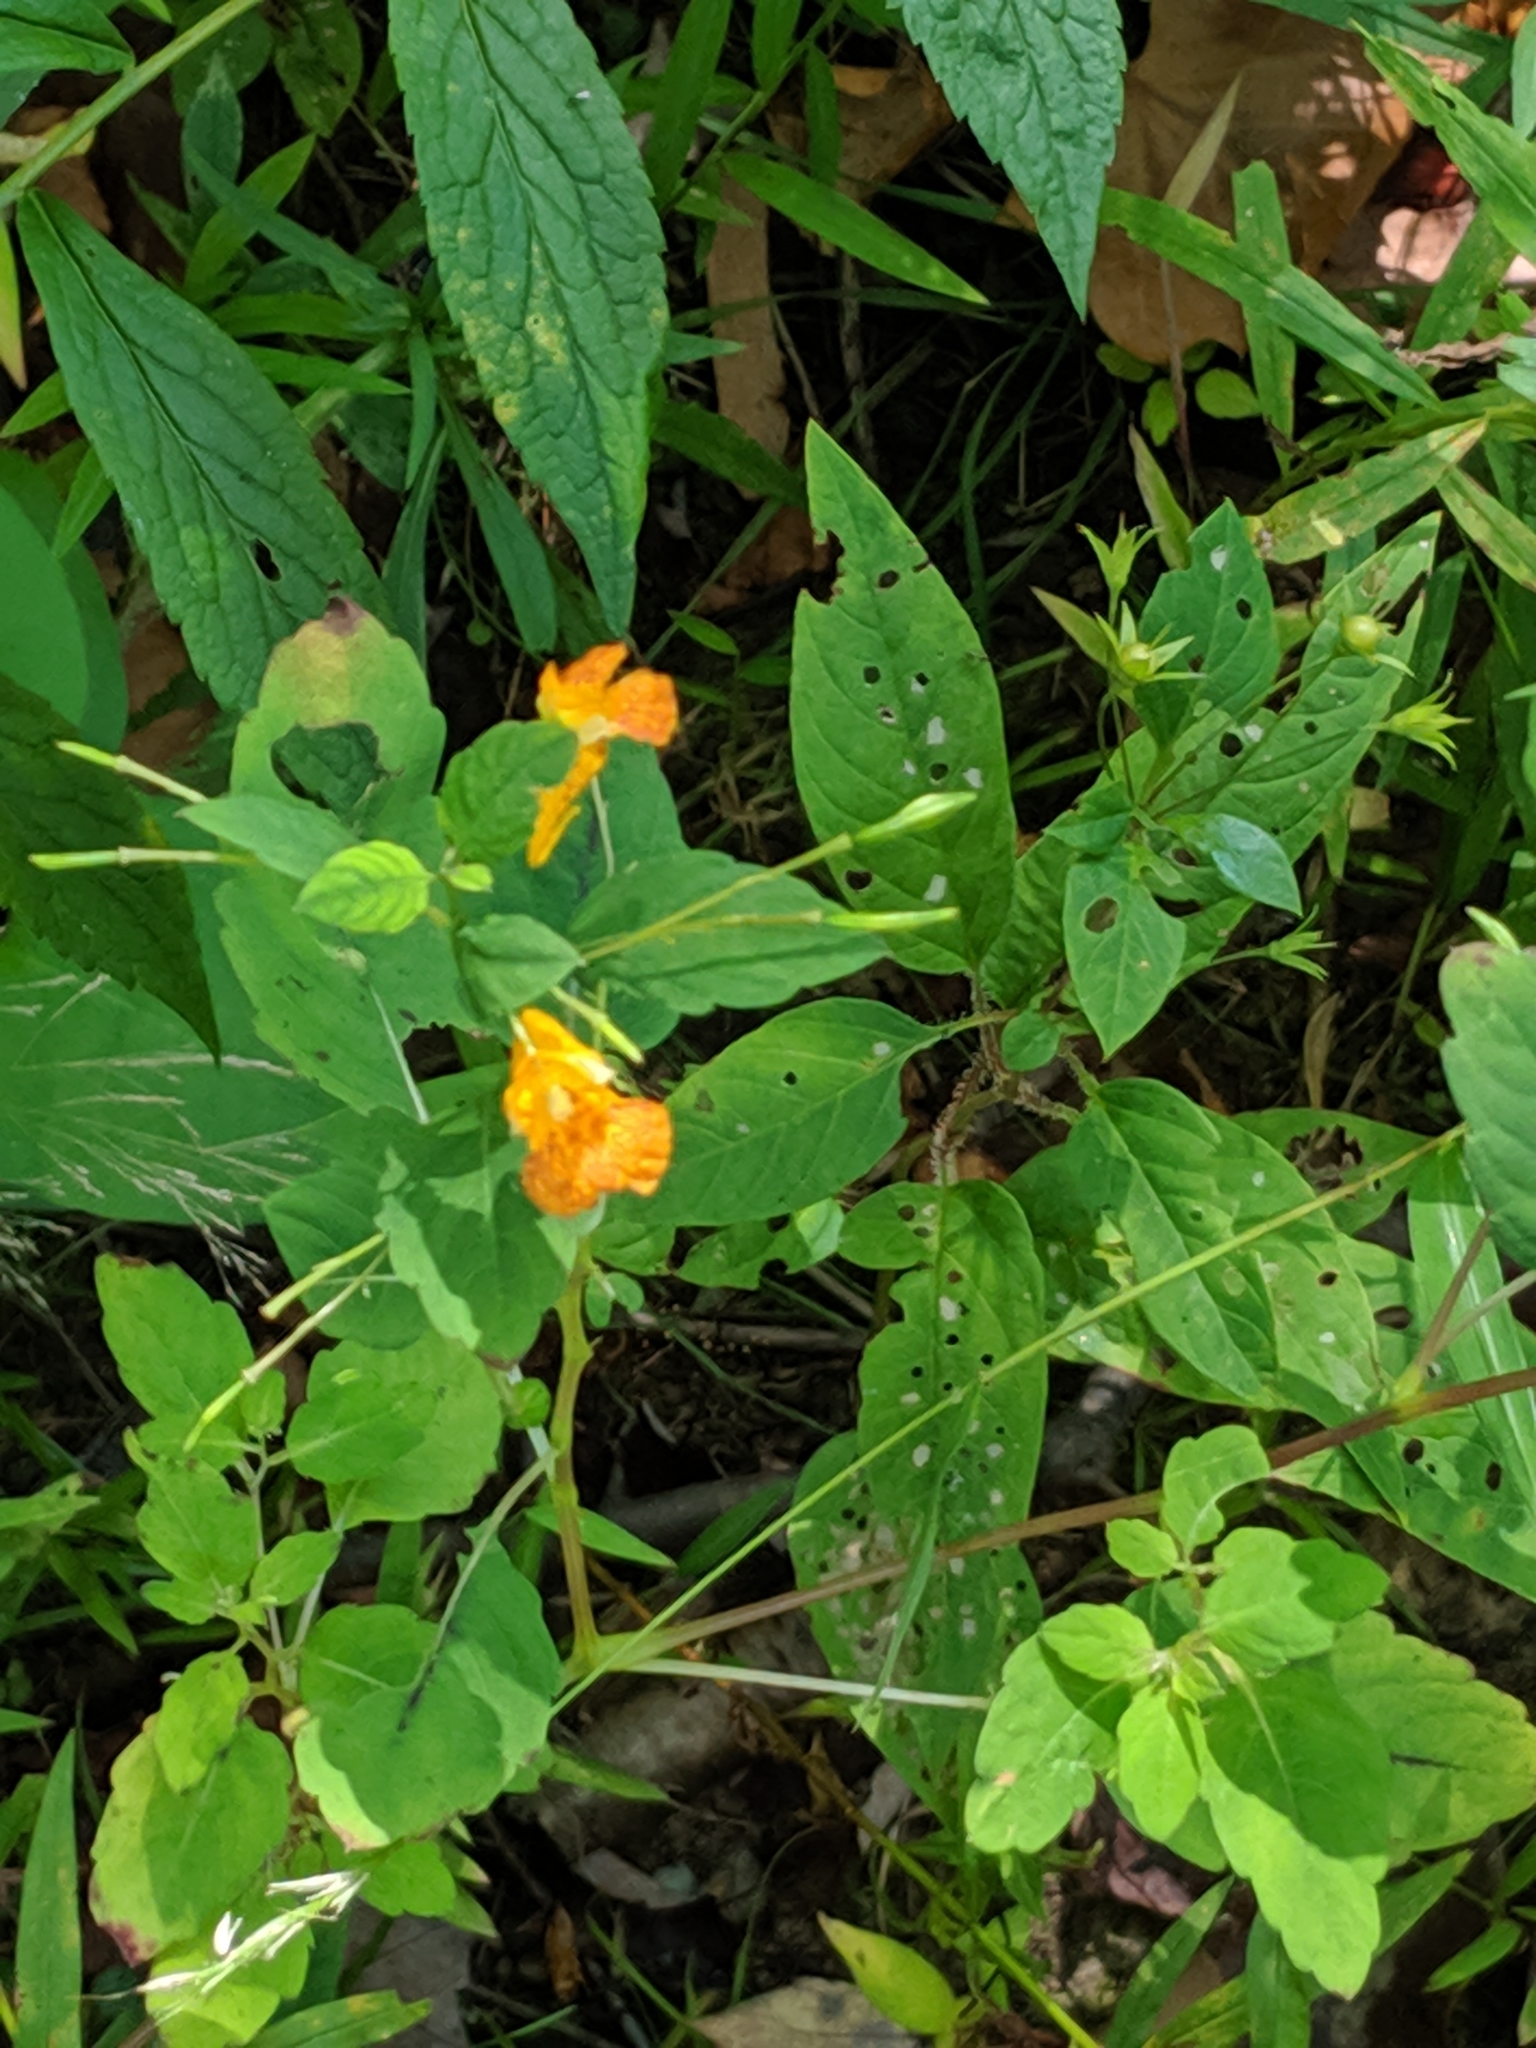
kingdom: Plantae
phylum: Tracheophyta
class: Magnoliopsida
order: Ericales
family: Balsaminaceae
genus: Impatiens
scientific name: Impatiens capensis
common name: Orange balsam
